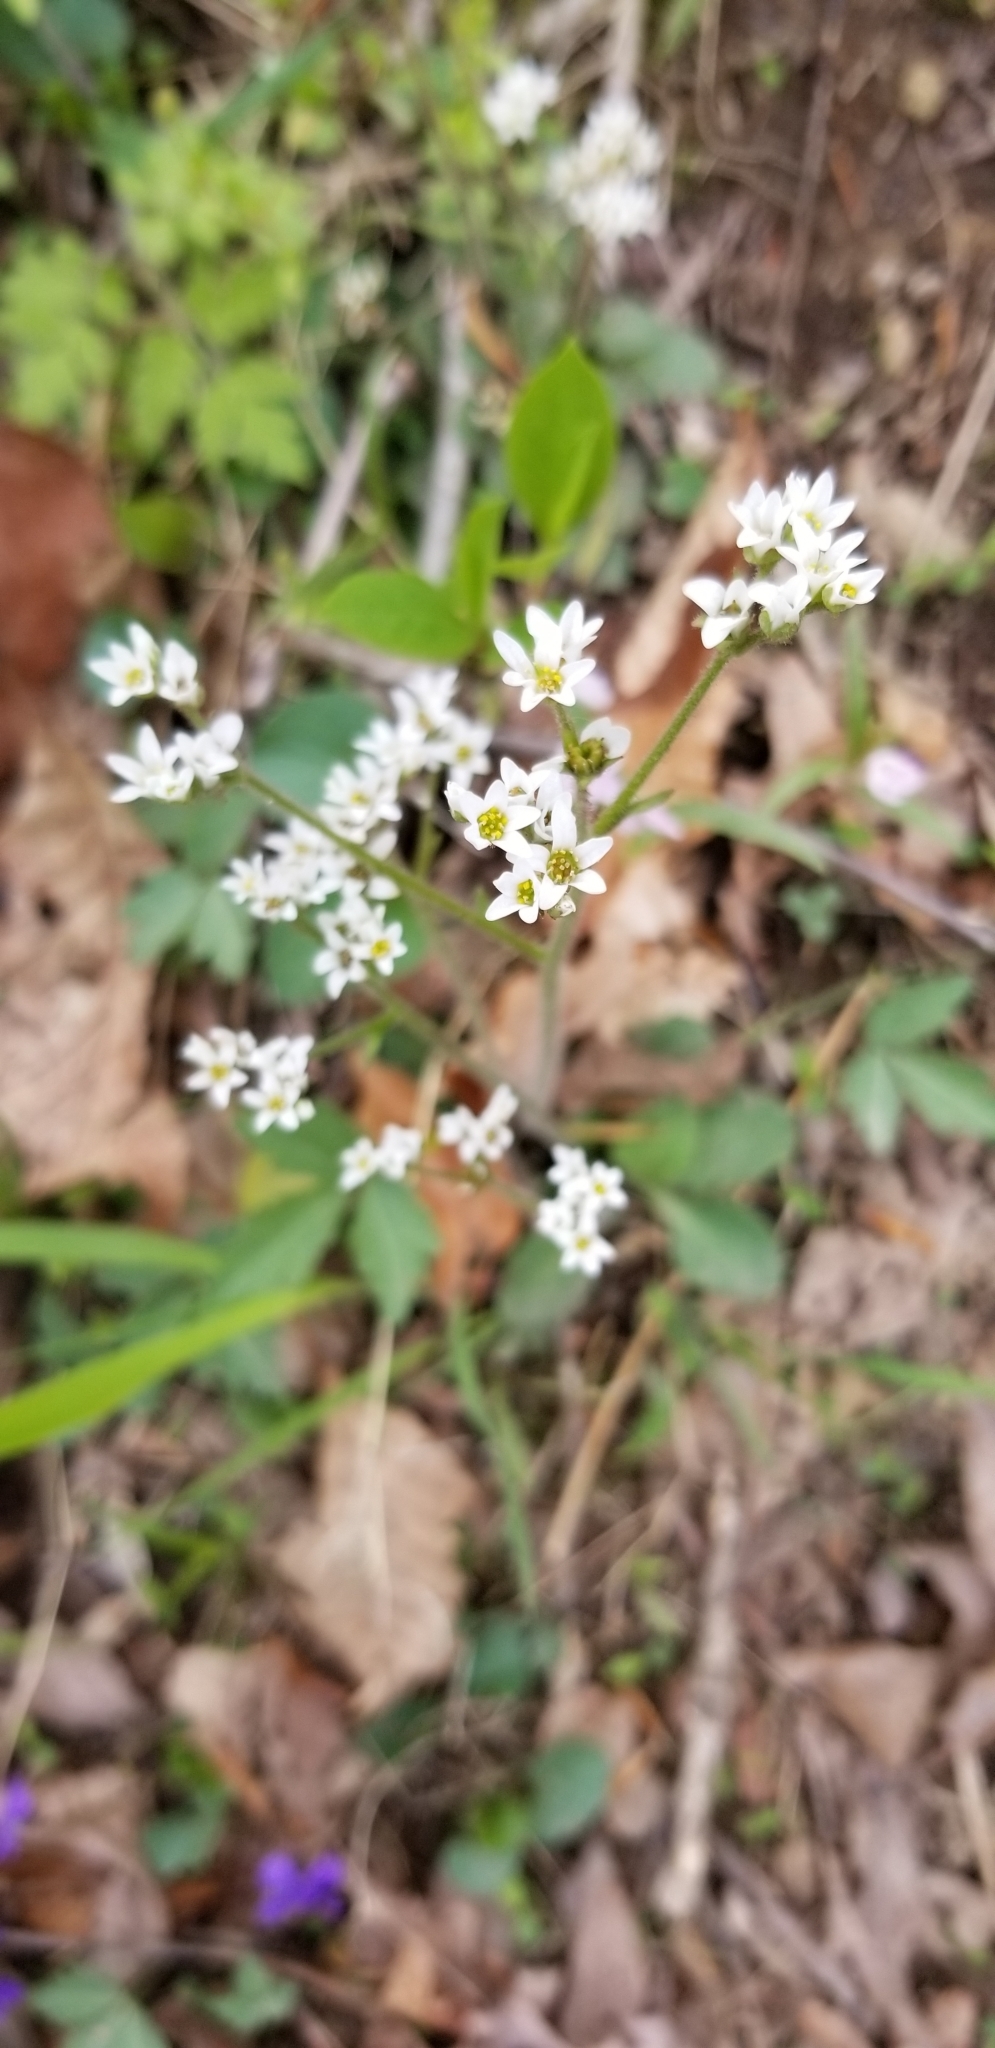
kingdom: Plantae
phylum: Tracheophyta
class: Magnoliopsida
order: Saxifragales
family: Saxifragaceae
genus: Micranthes
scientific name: Micranthes virginiensis
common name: Early saxifrage
